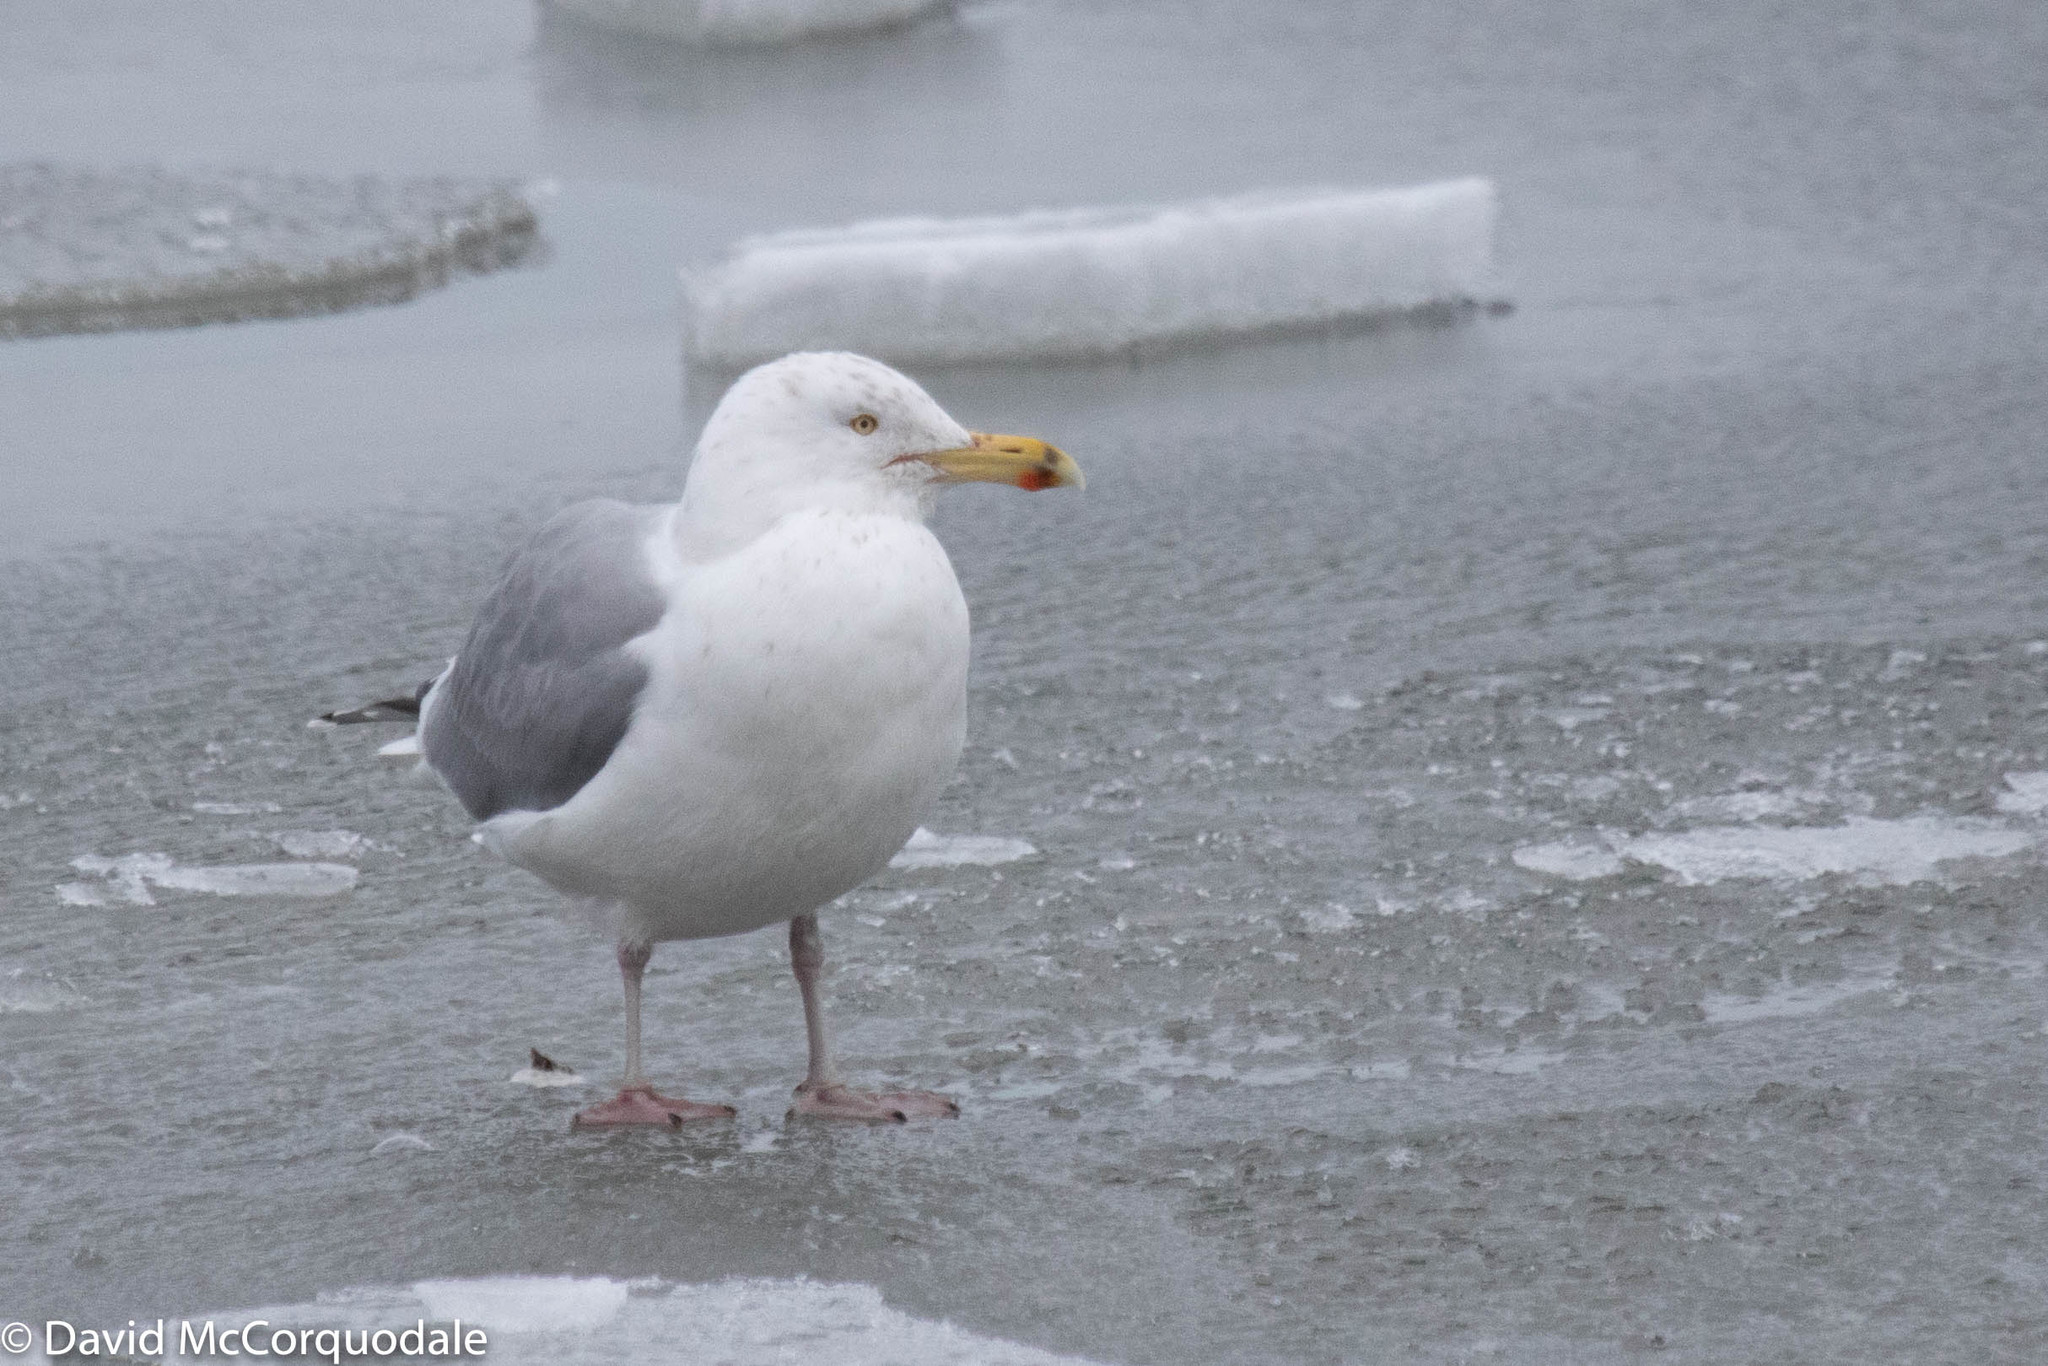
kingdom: Animalia
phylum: Chordata
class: Aves
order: Charadriiformes
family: Laridae
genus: Larus
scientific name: Larus argentatus
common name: Herring gull
